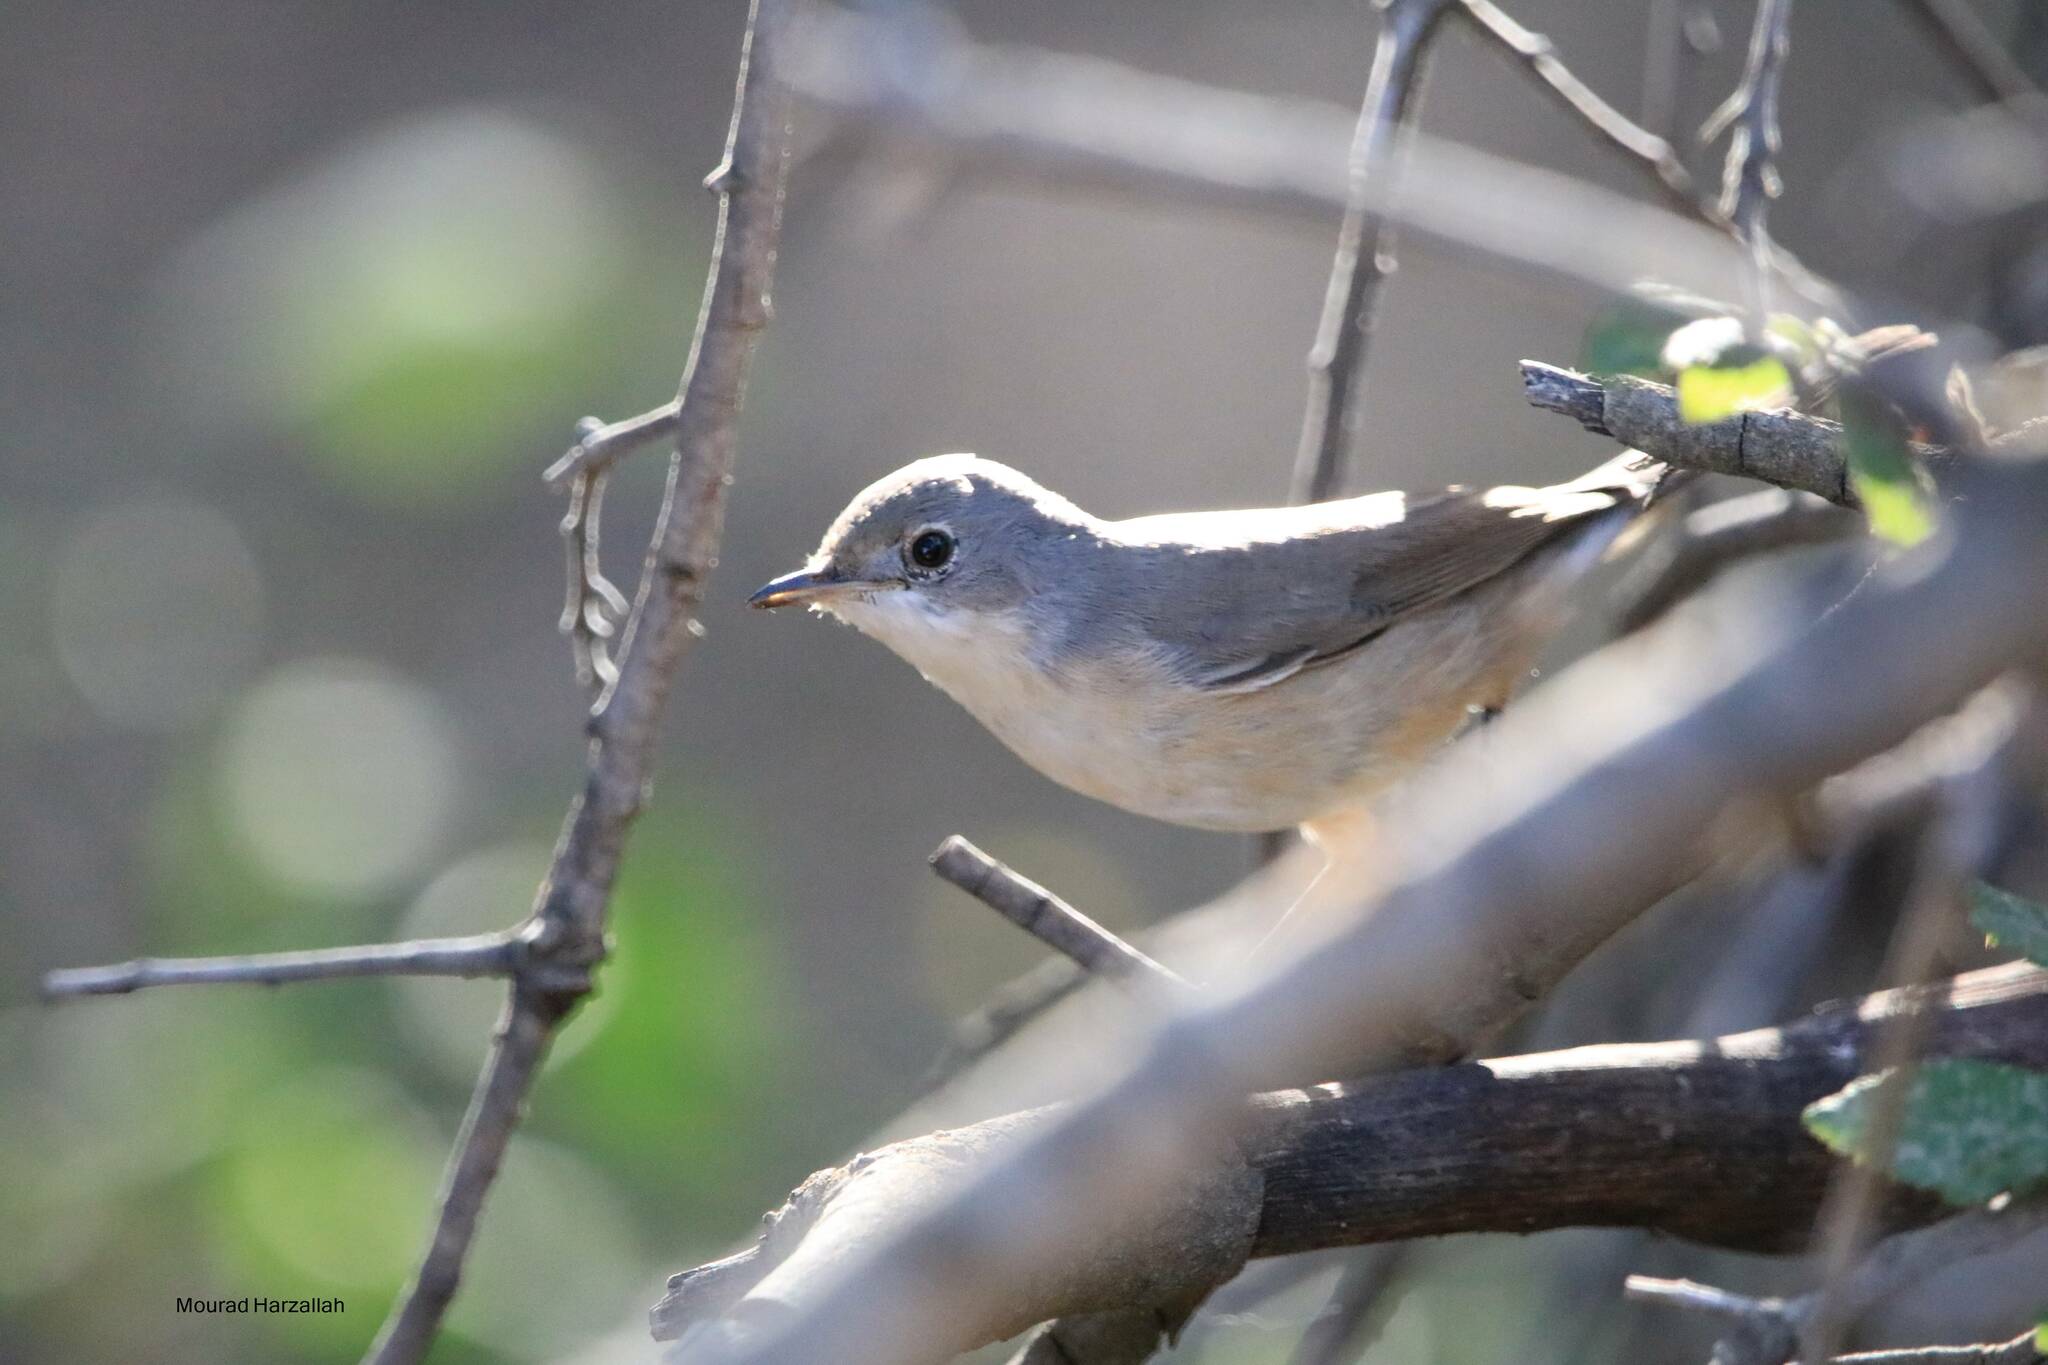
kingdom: Animalia
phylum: Chordata
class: Aves
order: Passeriformes
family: Sylviidae
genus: Curruca
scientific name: Curruca iberiae
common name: Western subalpine warbler
